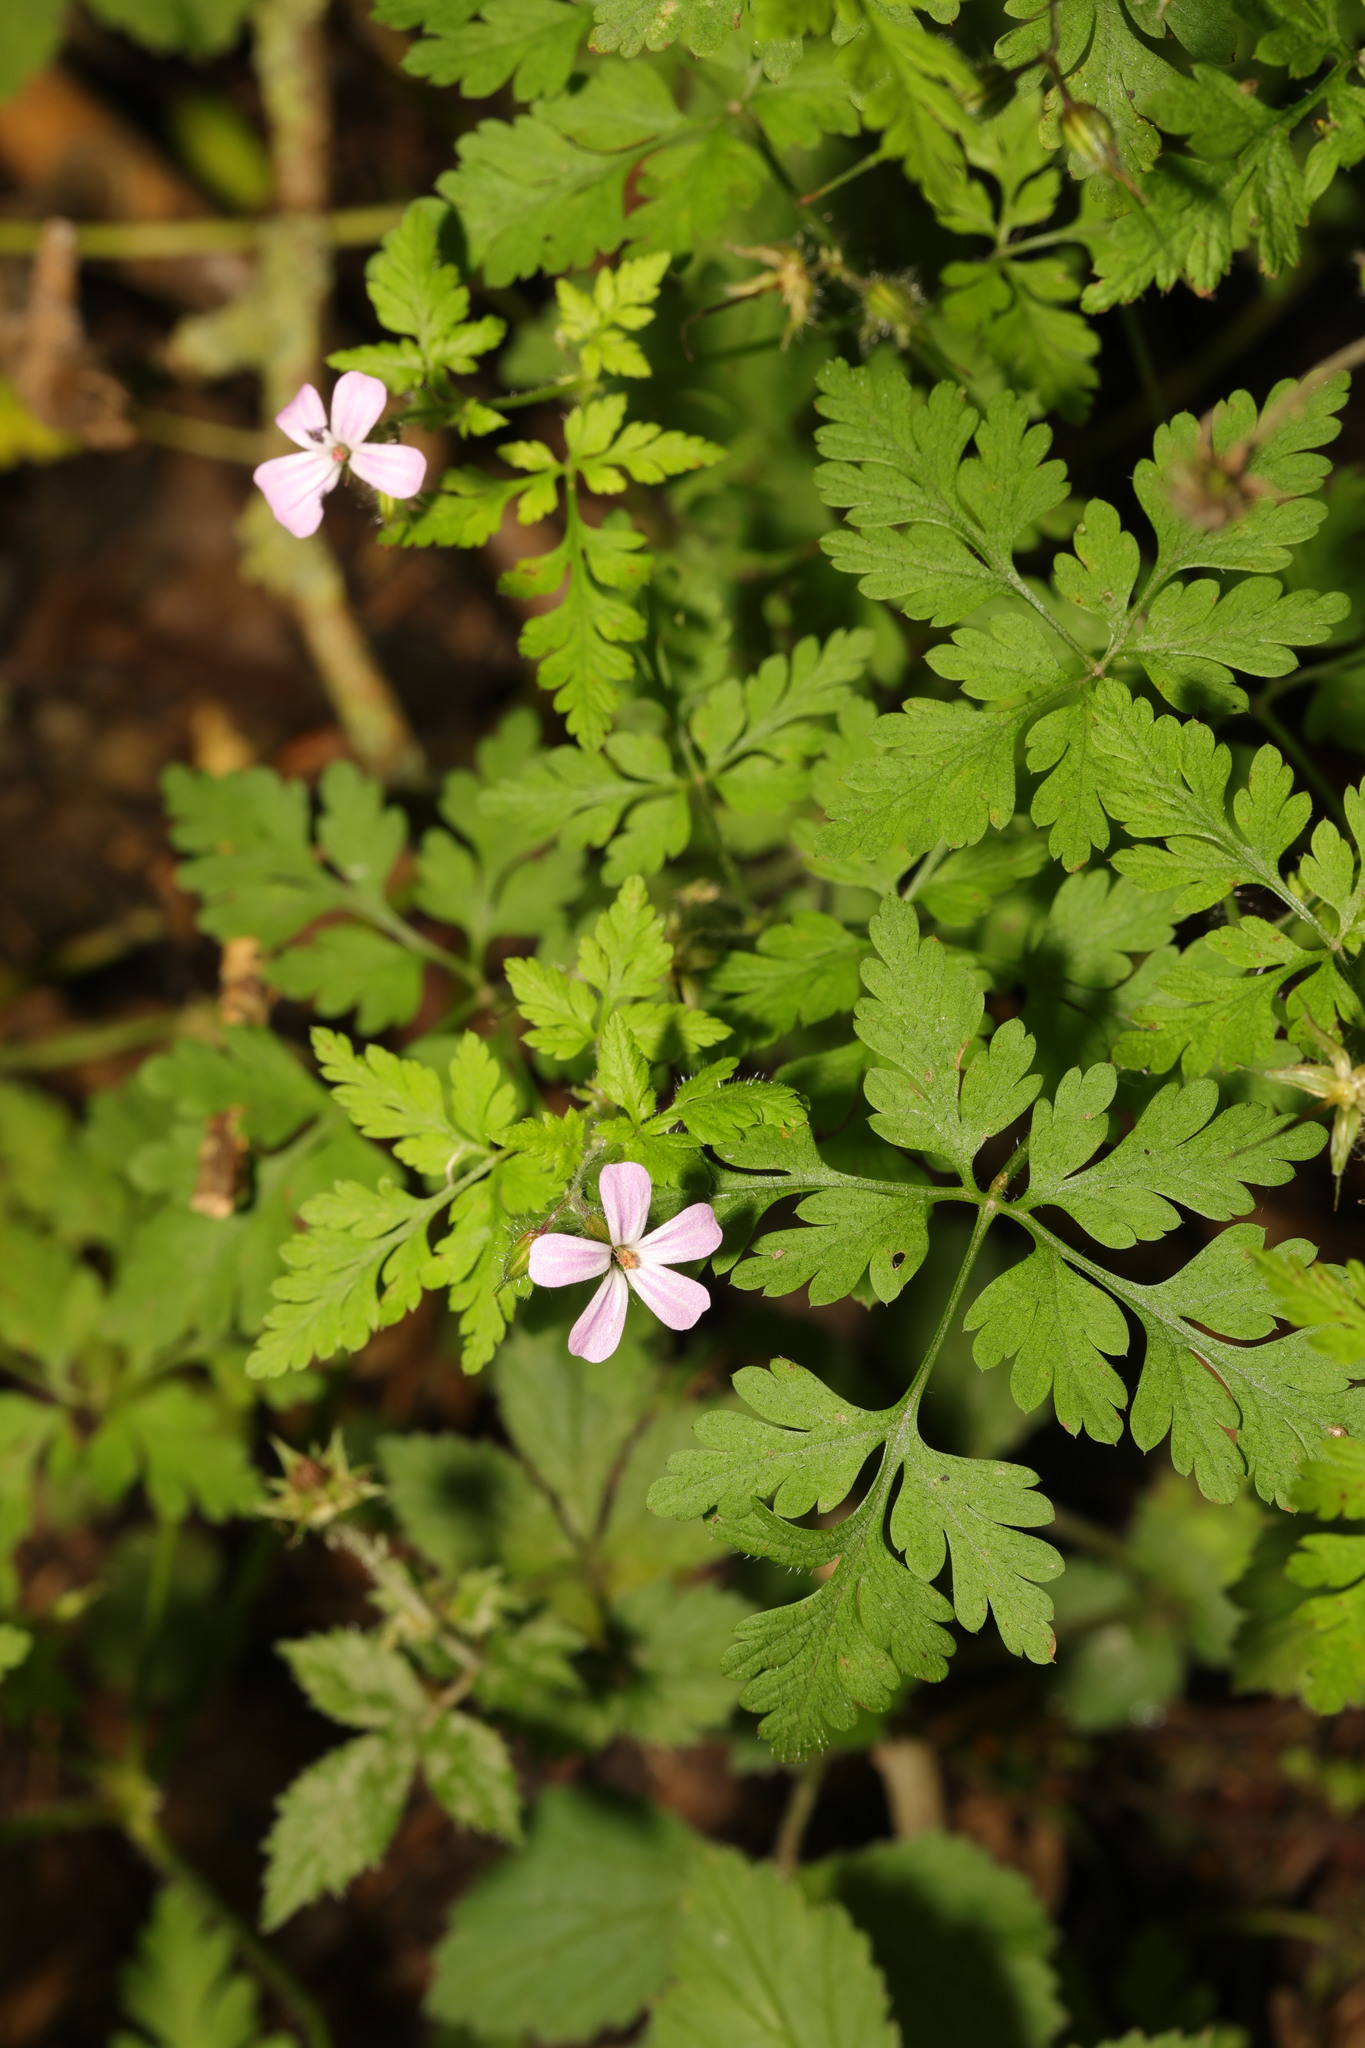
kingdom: Plantae
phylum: Tracheophyta
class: Magnoliopsida
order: Geraniales
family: Geraniaceae
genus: Geranium
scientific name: Geranium robertianum
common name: Herb-robert
